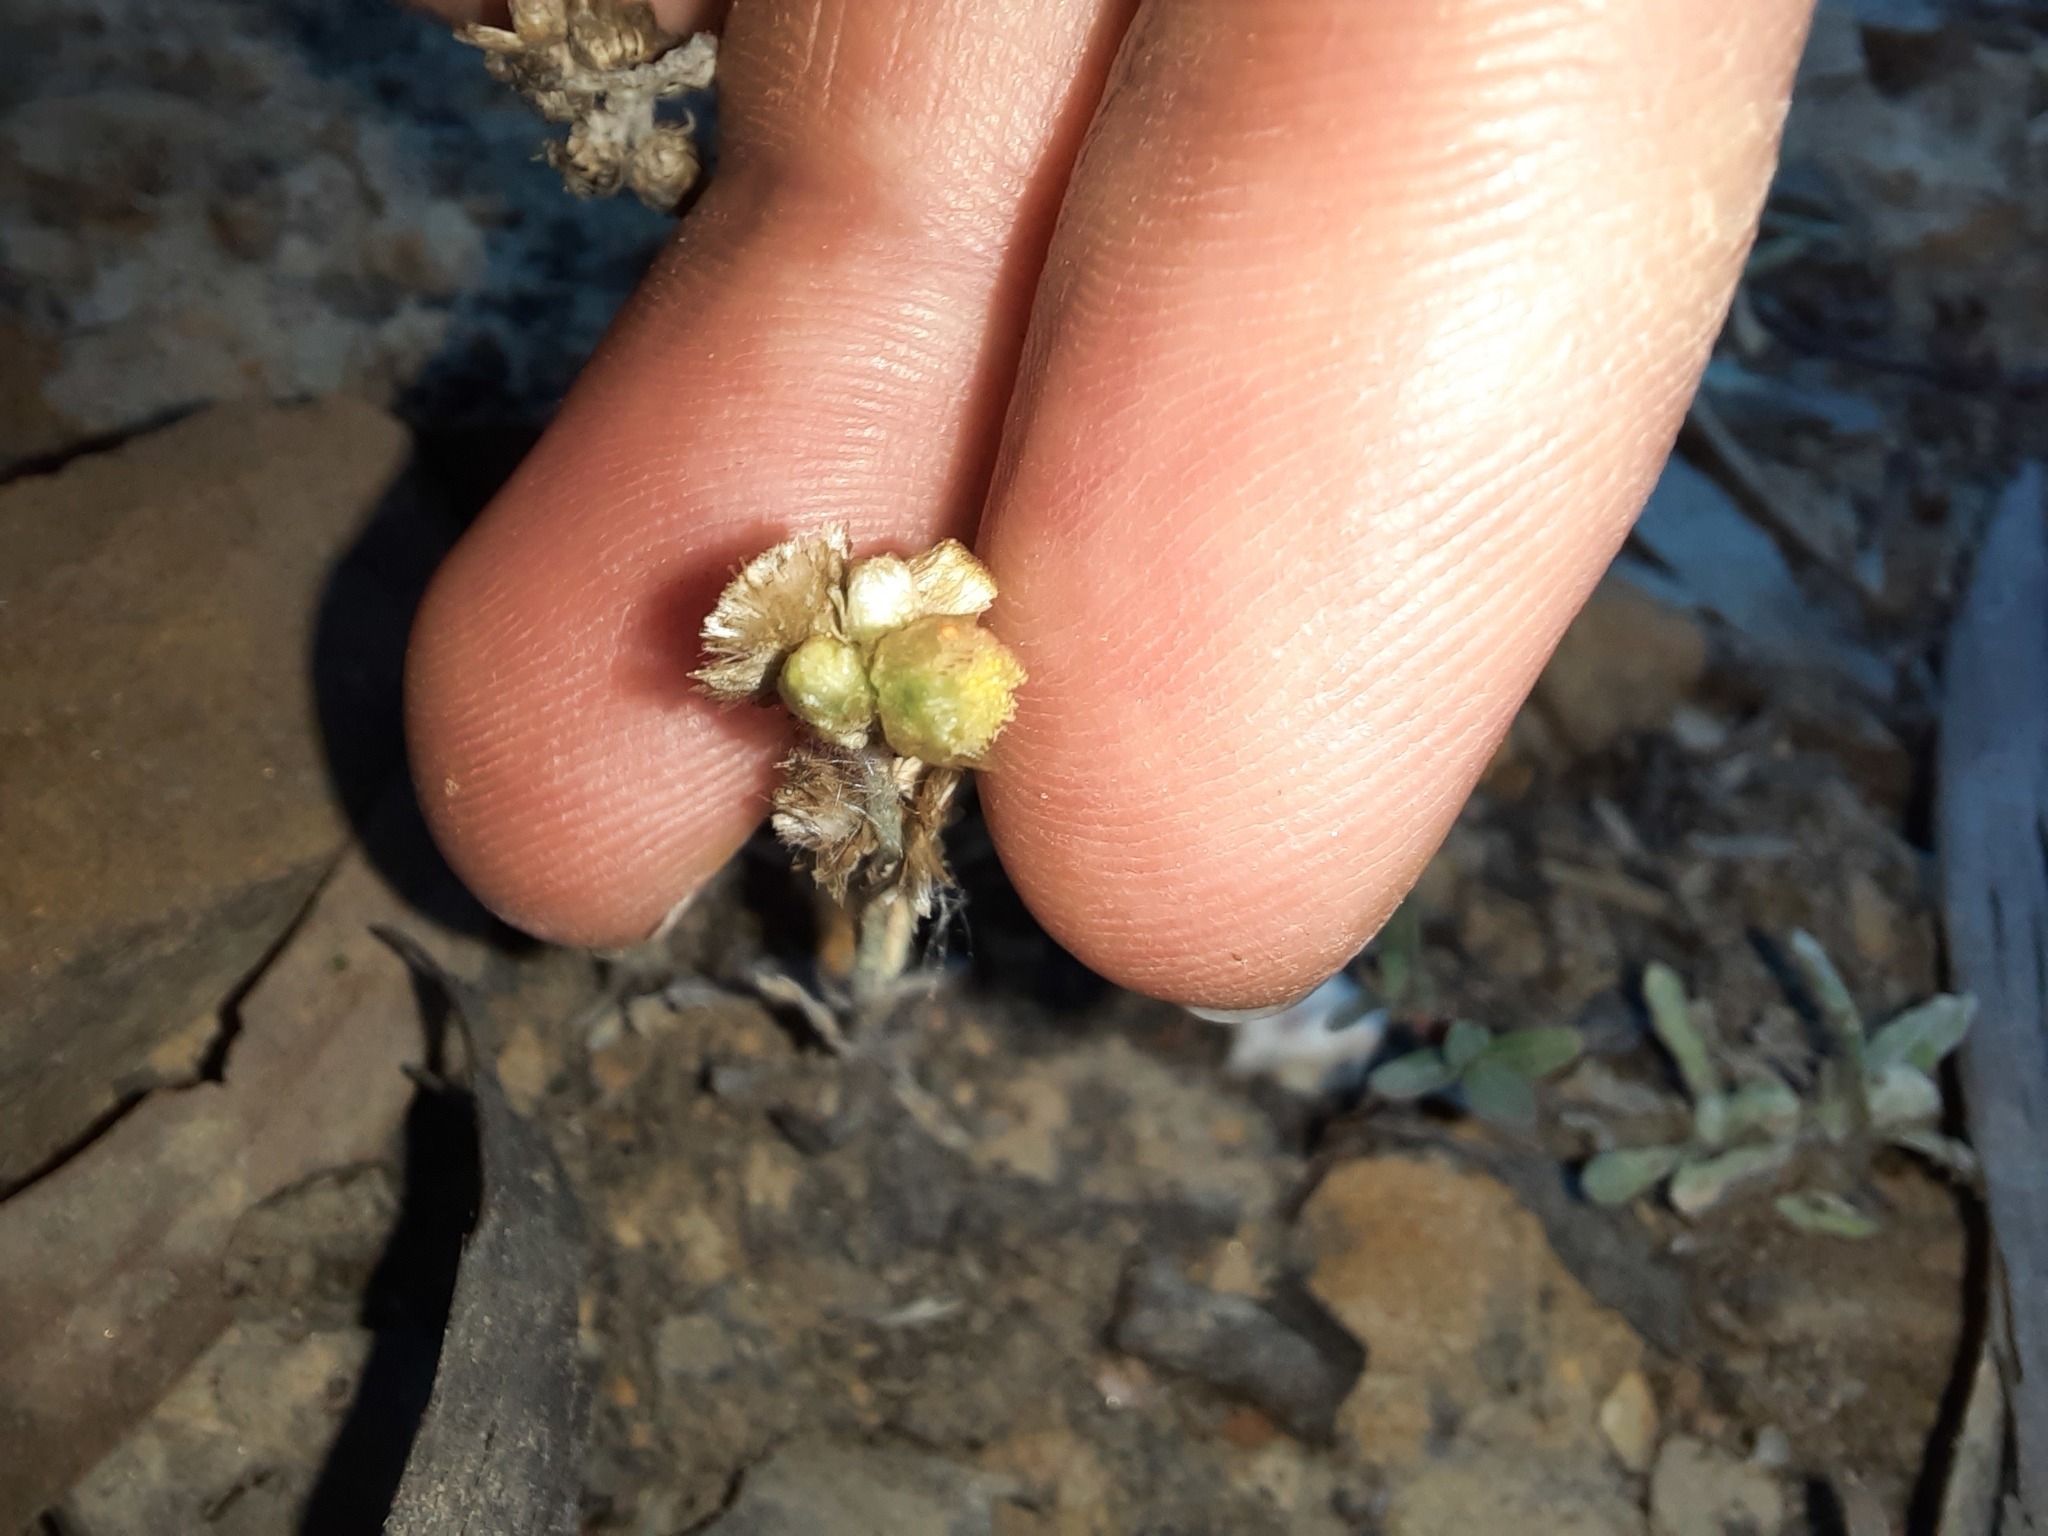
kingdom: Plantae
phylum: Tracheophyta
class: Magnoliopsida
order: Asterales
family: Asteraceae
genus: Helichrysum
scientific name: Helichrysum luteoalbum
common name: Daisy
